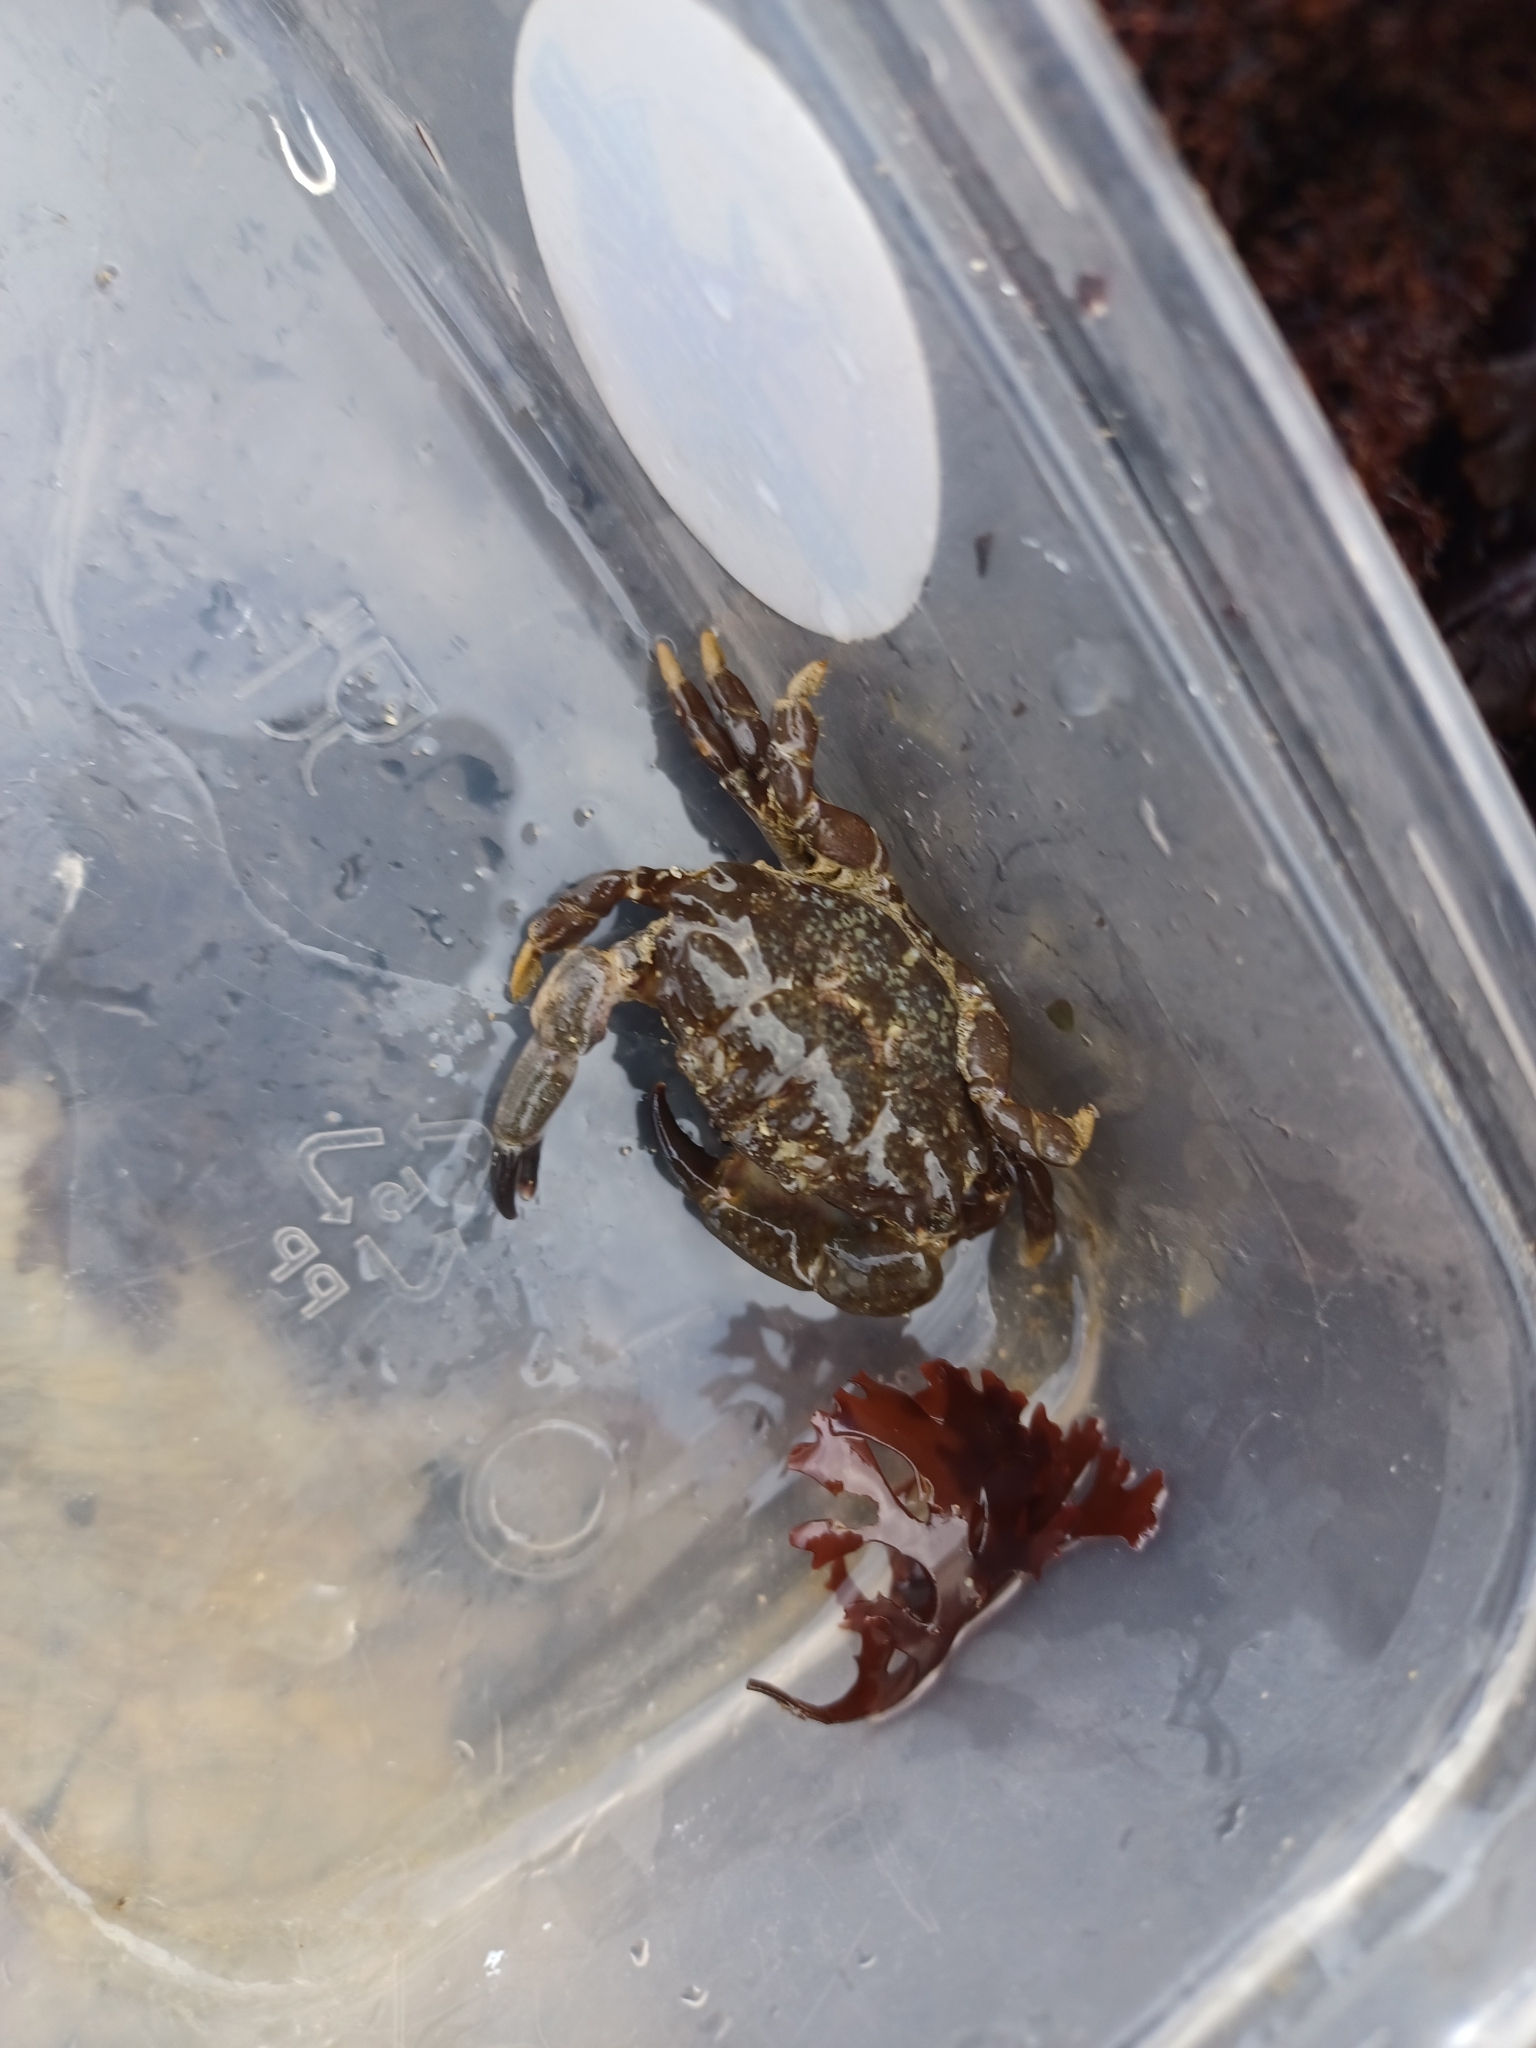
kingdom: Animalia
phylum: Arthropoda
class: Malacostraca
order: Decapoda
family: Xanthidae
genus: Xantho
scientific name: Xantho hydrophilus
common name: Montagu's crab
